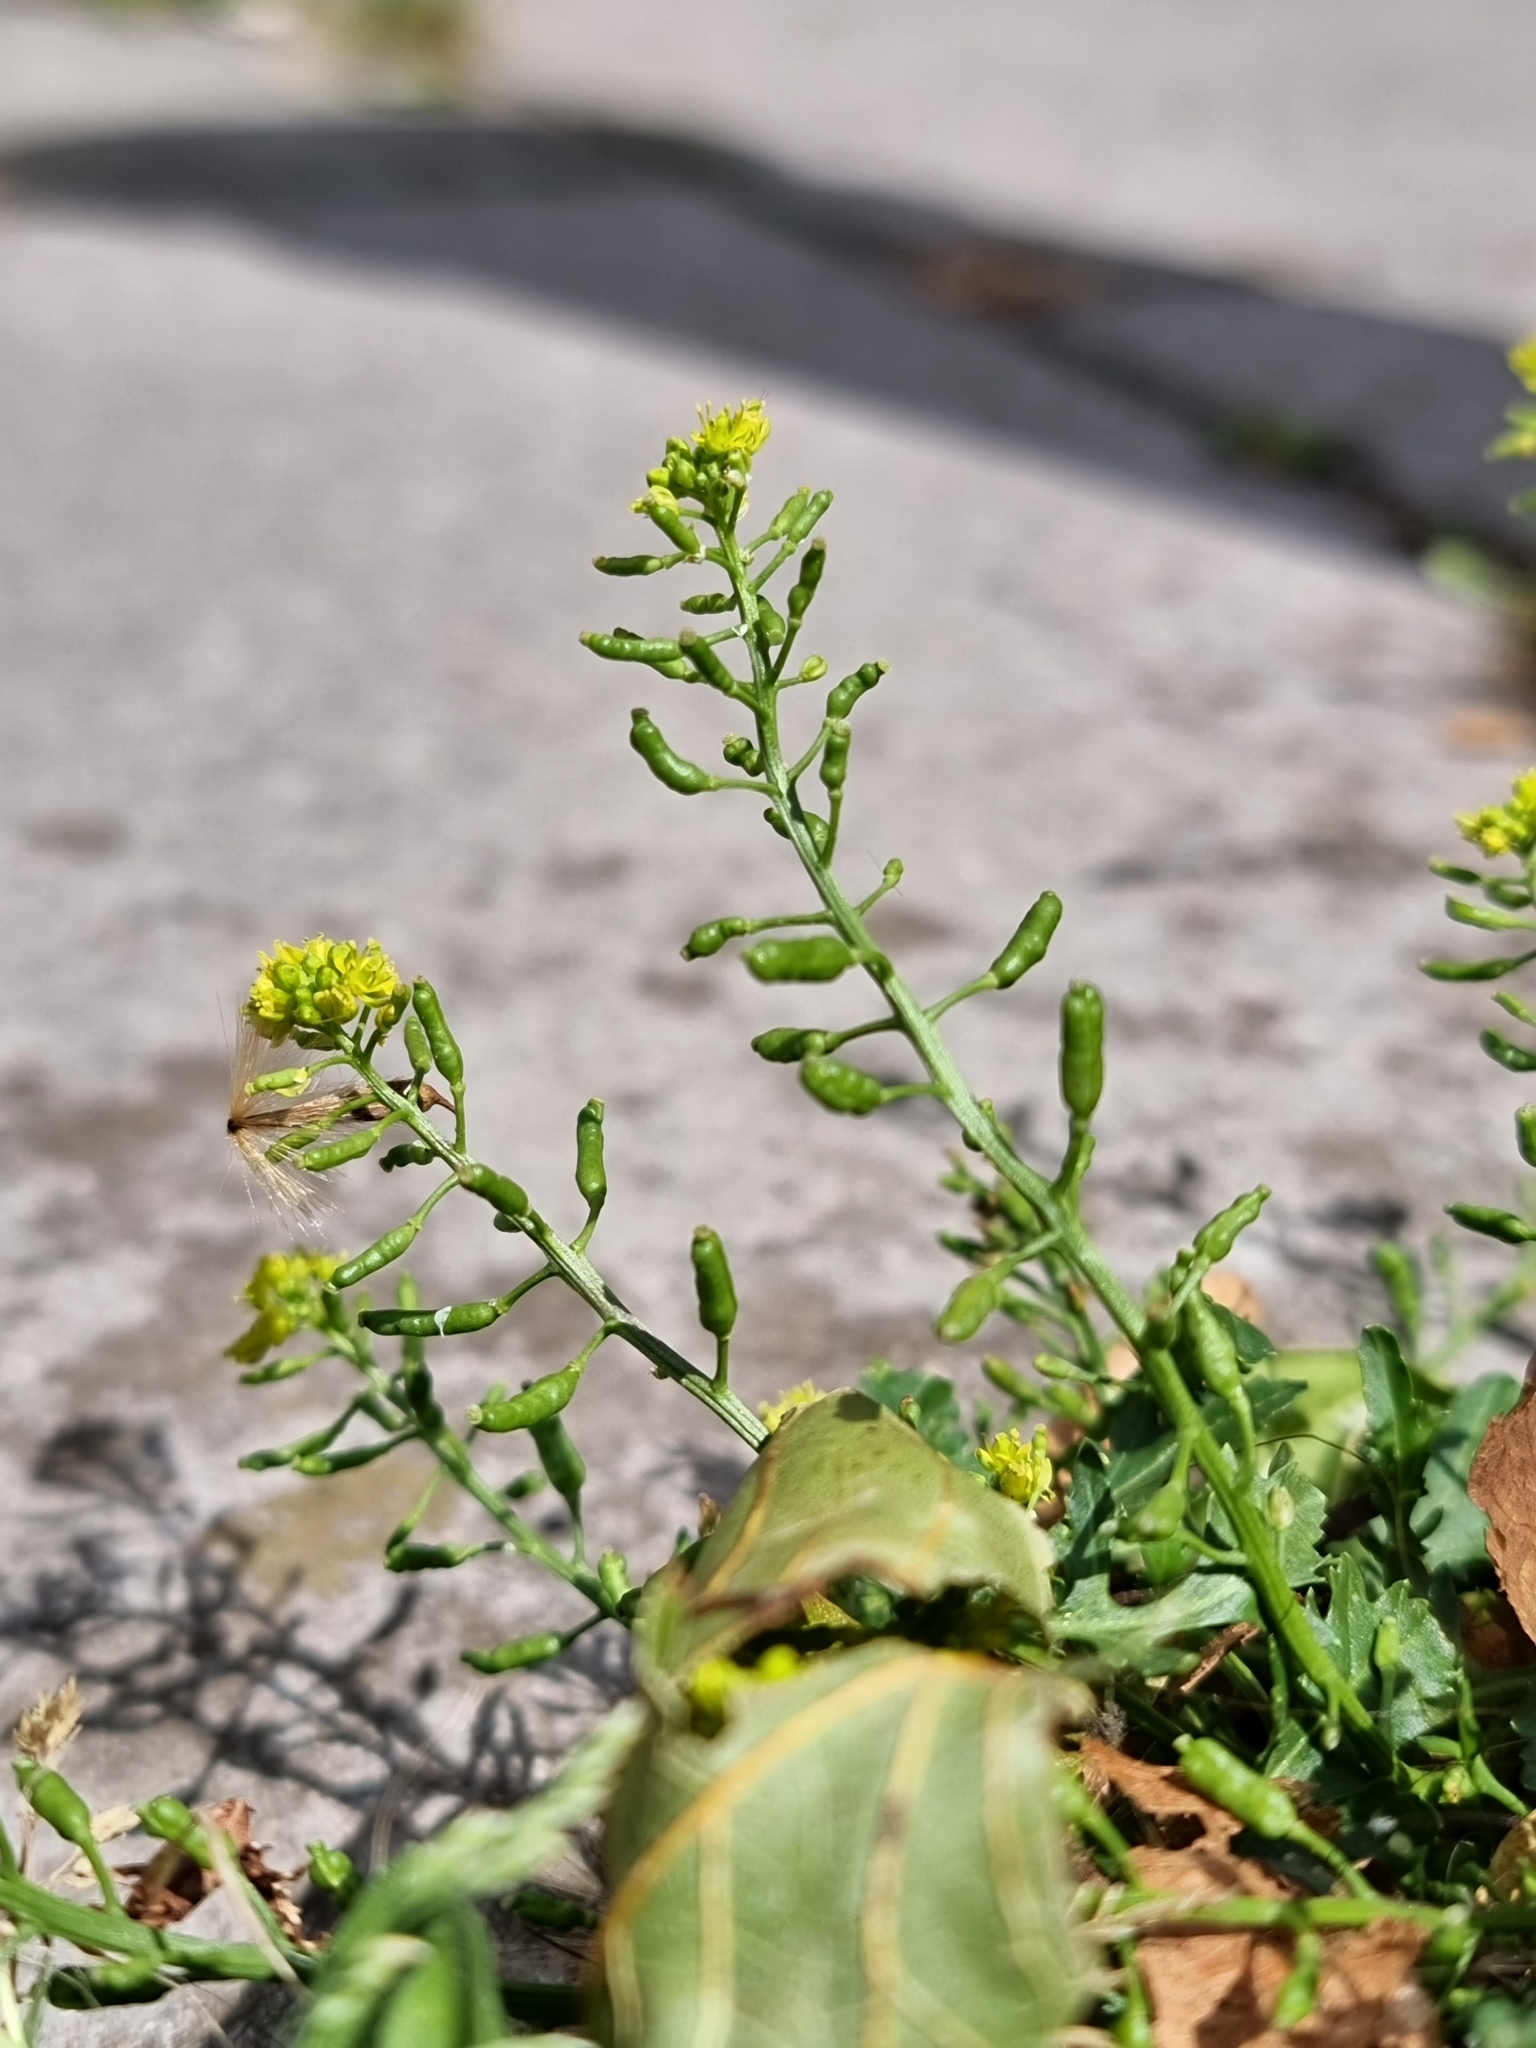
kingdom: Plantae
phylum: Tracheophyta
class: Magnoliopsida
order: Brassicales
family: Brassicaceae
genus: Rorippa
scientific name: Rorippa palustris
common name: Marsh yellow-cress
